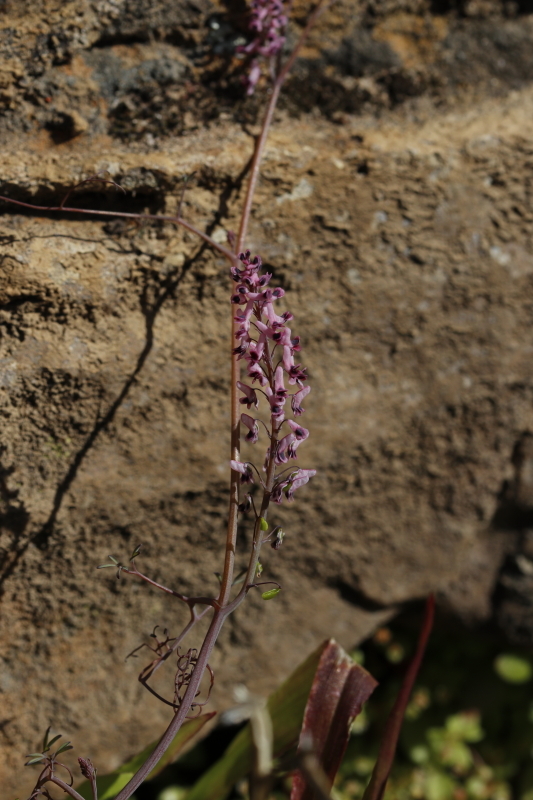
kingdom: Plantae
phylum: Tracheophyta
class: Magnoliopsida
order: Ranunculales
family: Papaveraceae
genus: Trigonocapnos
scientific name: Trigonocapnos lichtensteinii
